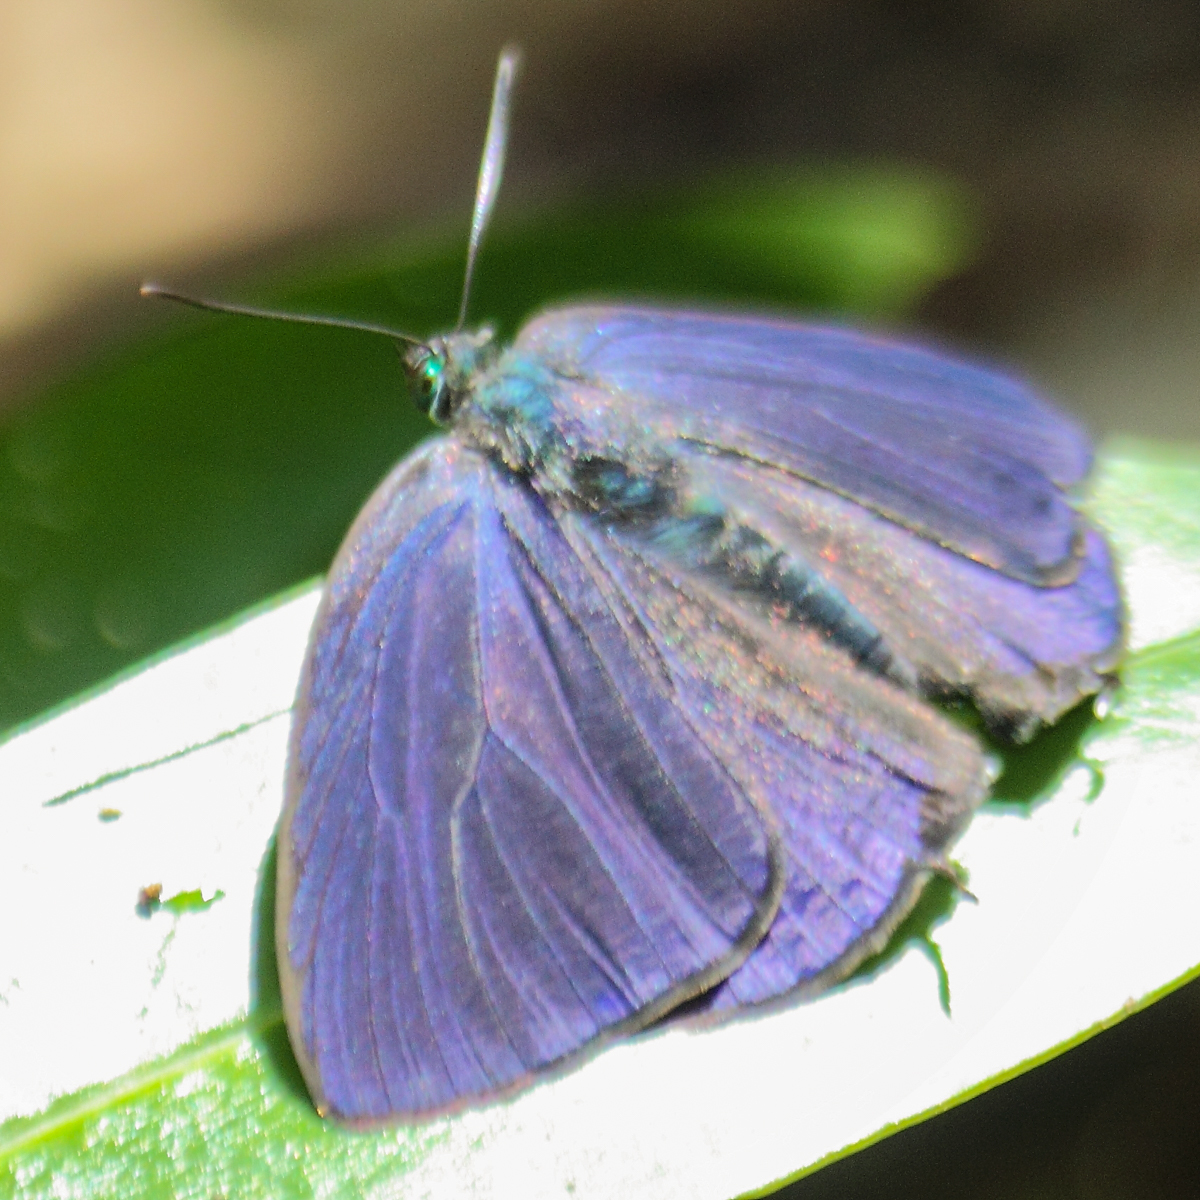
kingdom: Animalia
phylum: Arthropoda
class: Insecta
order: Lepidoptera
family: Lycaenidae
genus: Arhopala
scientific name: Arhopala agrata
